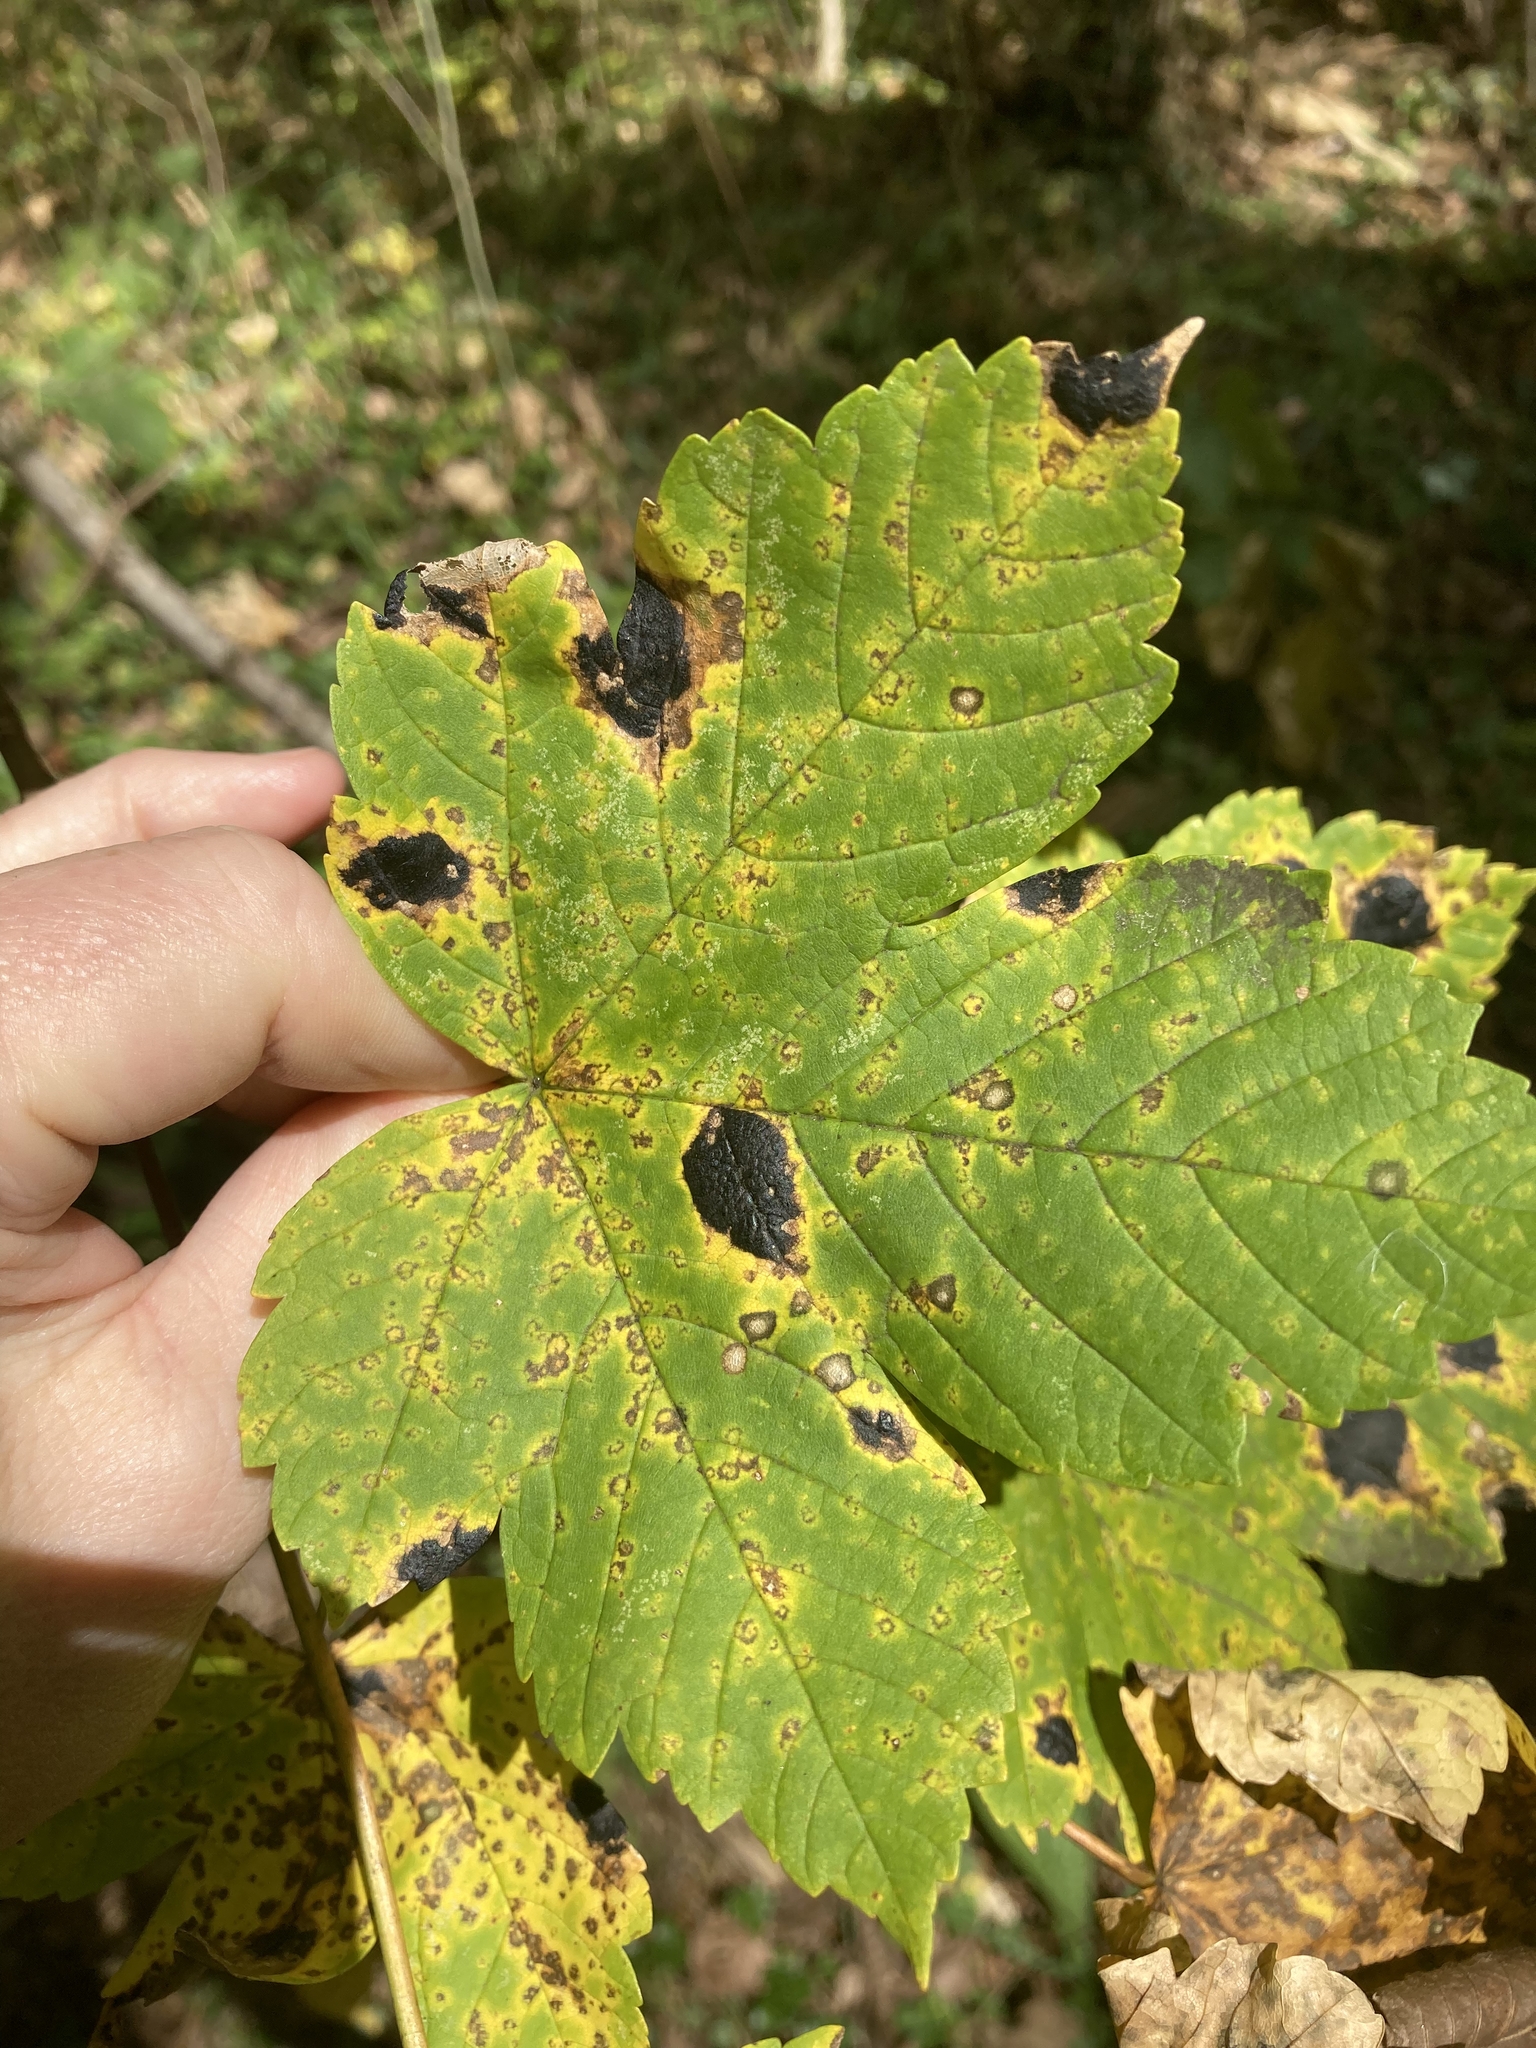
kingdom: Plantae
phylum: Tracheophyta
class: Magnoliopsida
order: Sapindales
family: Sapindaceae
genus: Acer
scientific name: Acer pseudoplatanus
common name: Sycamore
